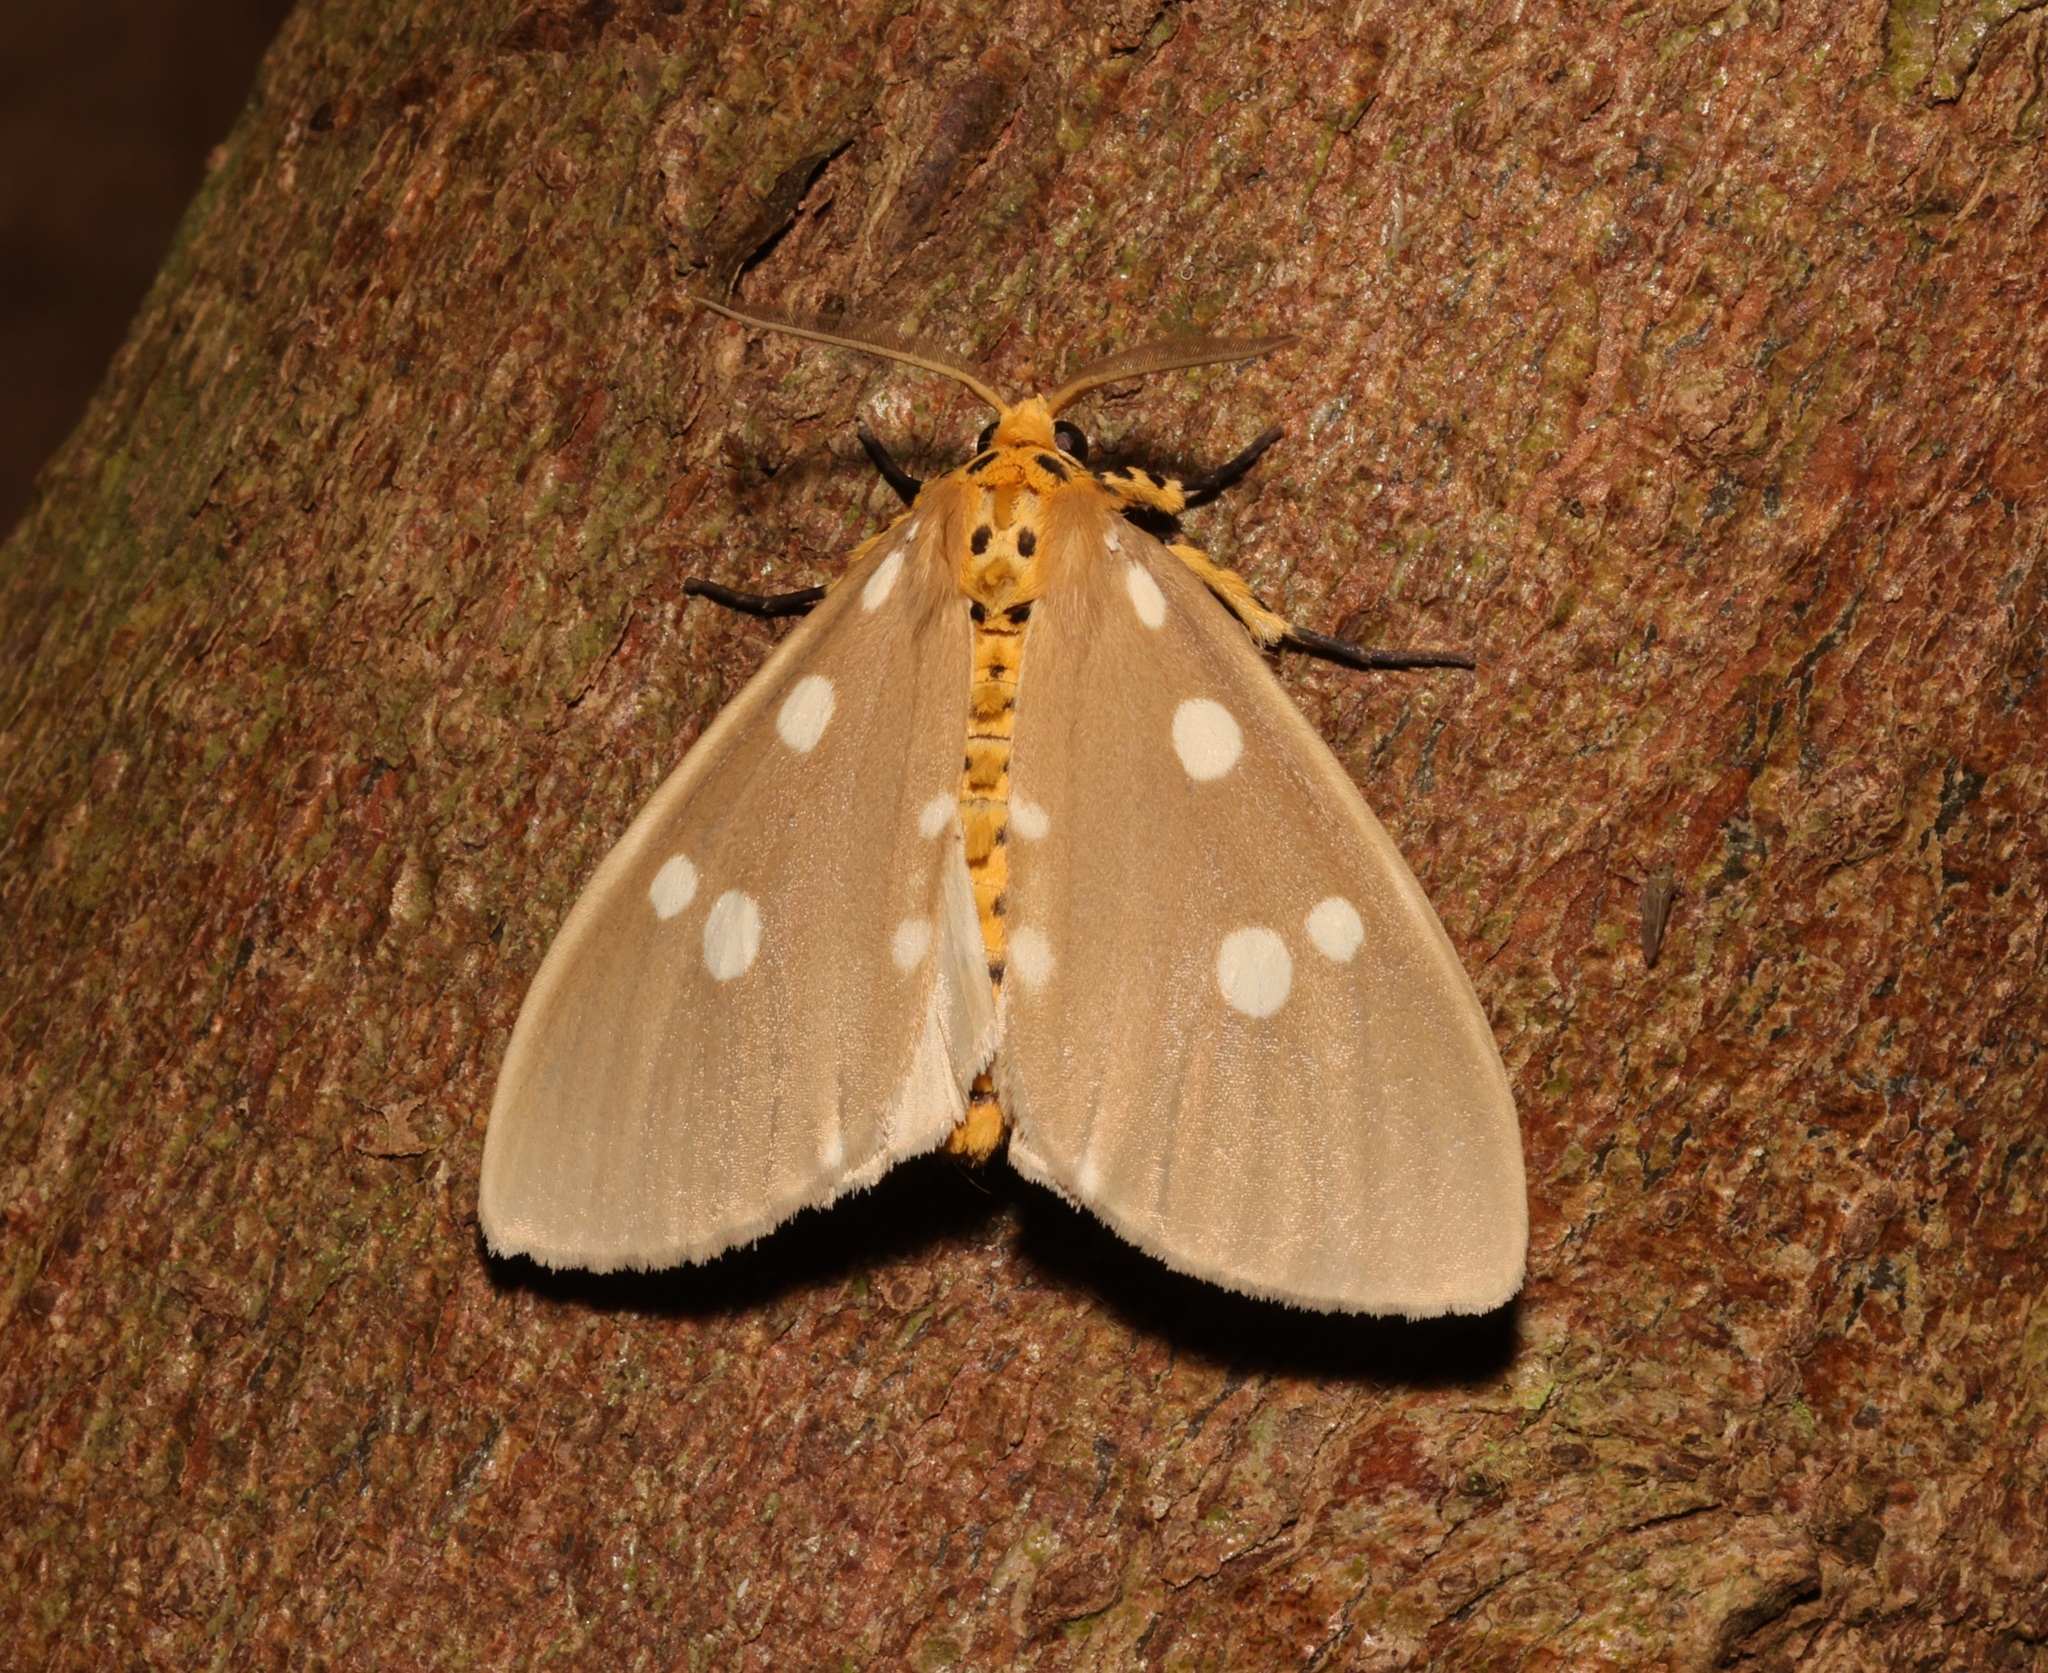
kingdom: Animalia
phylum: Arthropoda
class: Insecta
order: Lepidoptera
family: Erebidae
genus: Tinolius
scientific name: Tinolius hypsana
